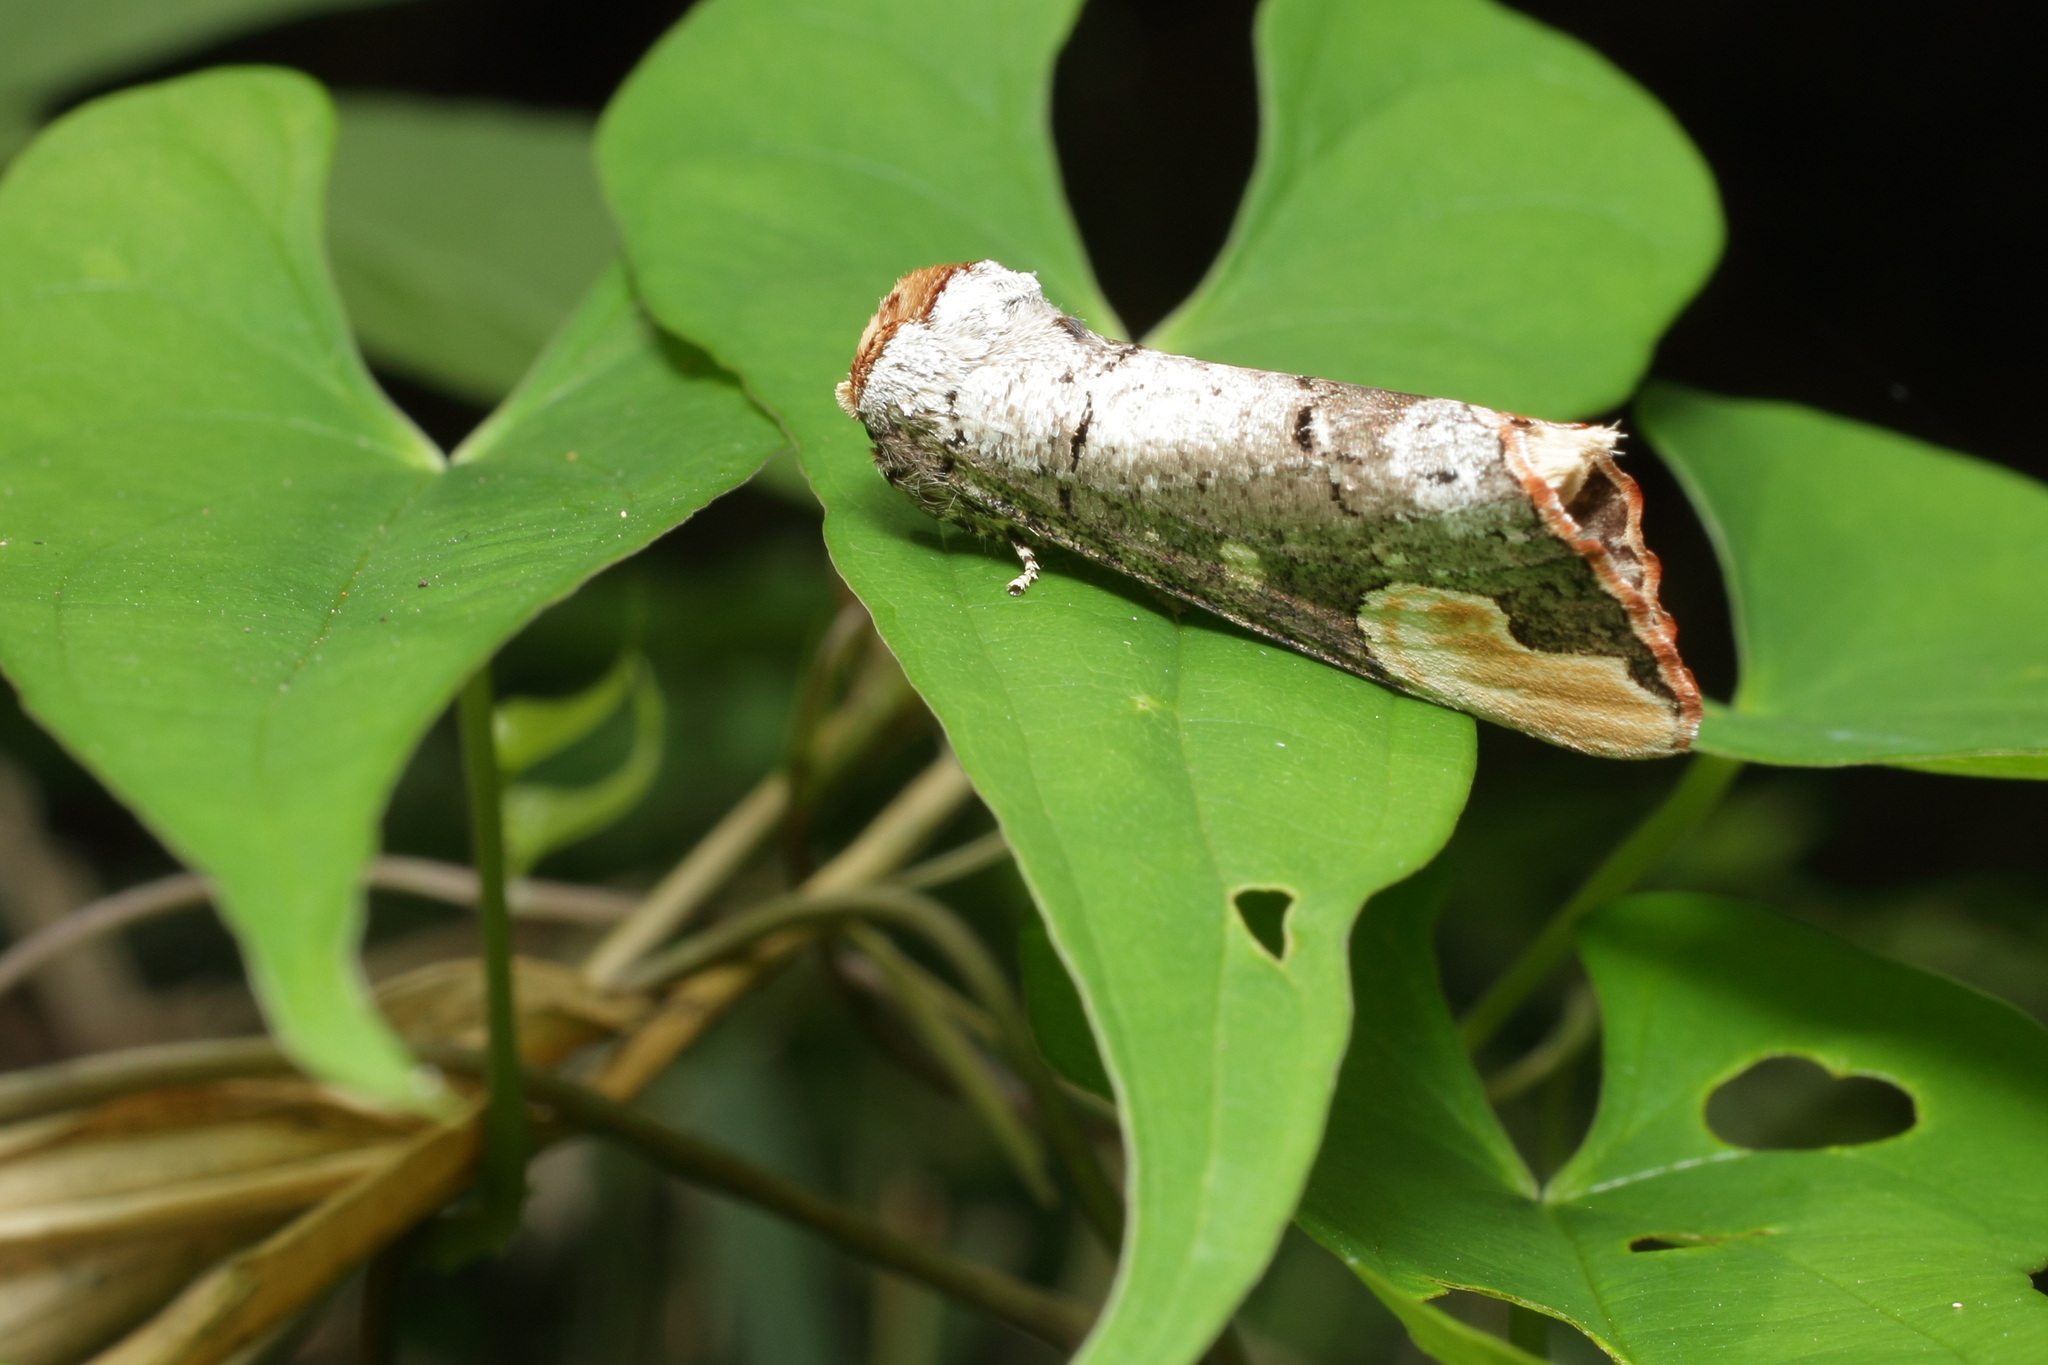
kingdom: Animalia
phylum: Arthropoda
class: Insecta
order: Lepidoptera
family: Notodontidae
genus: Phalera
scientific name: Phalera assimilis
